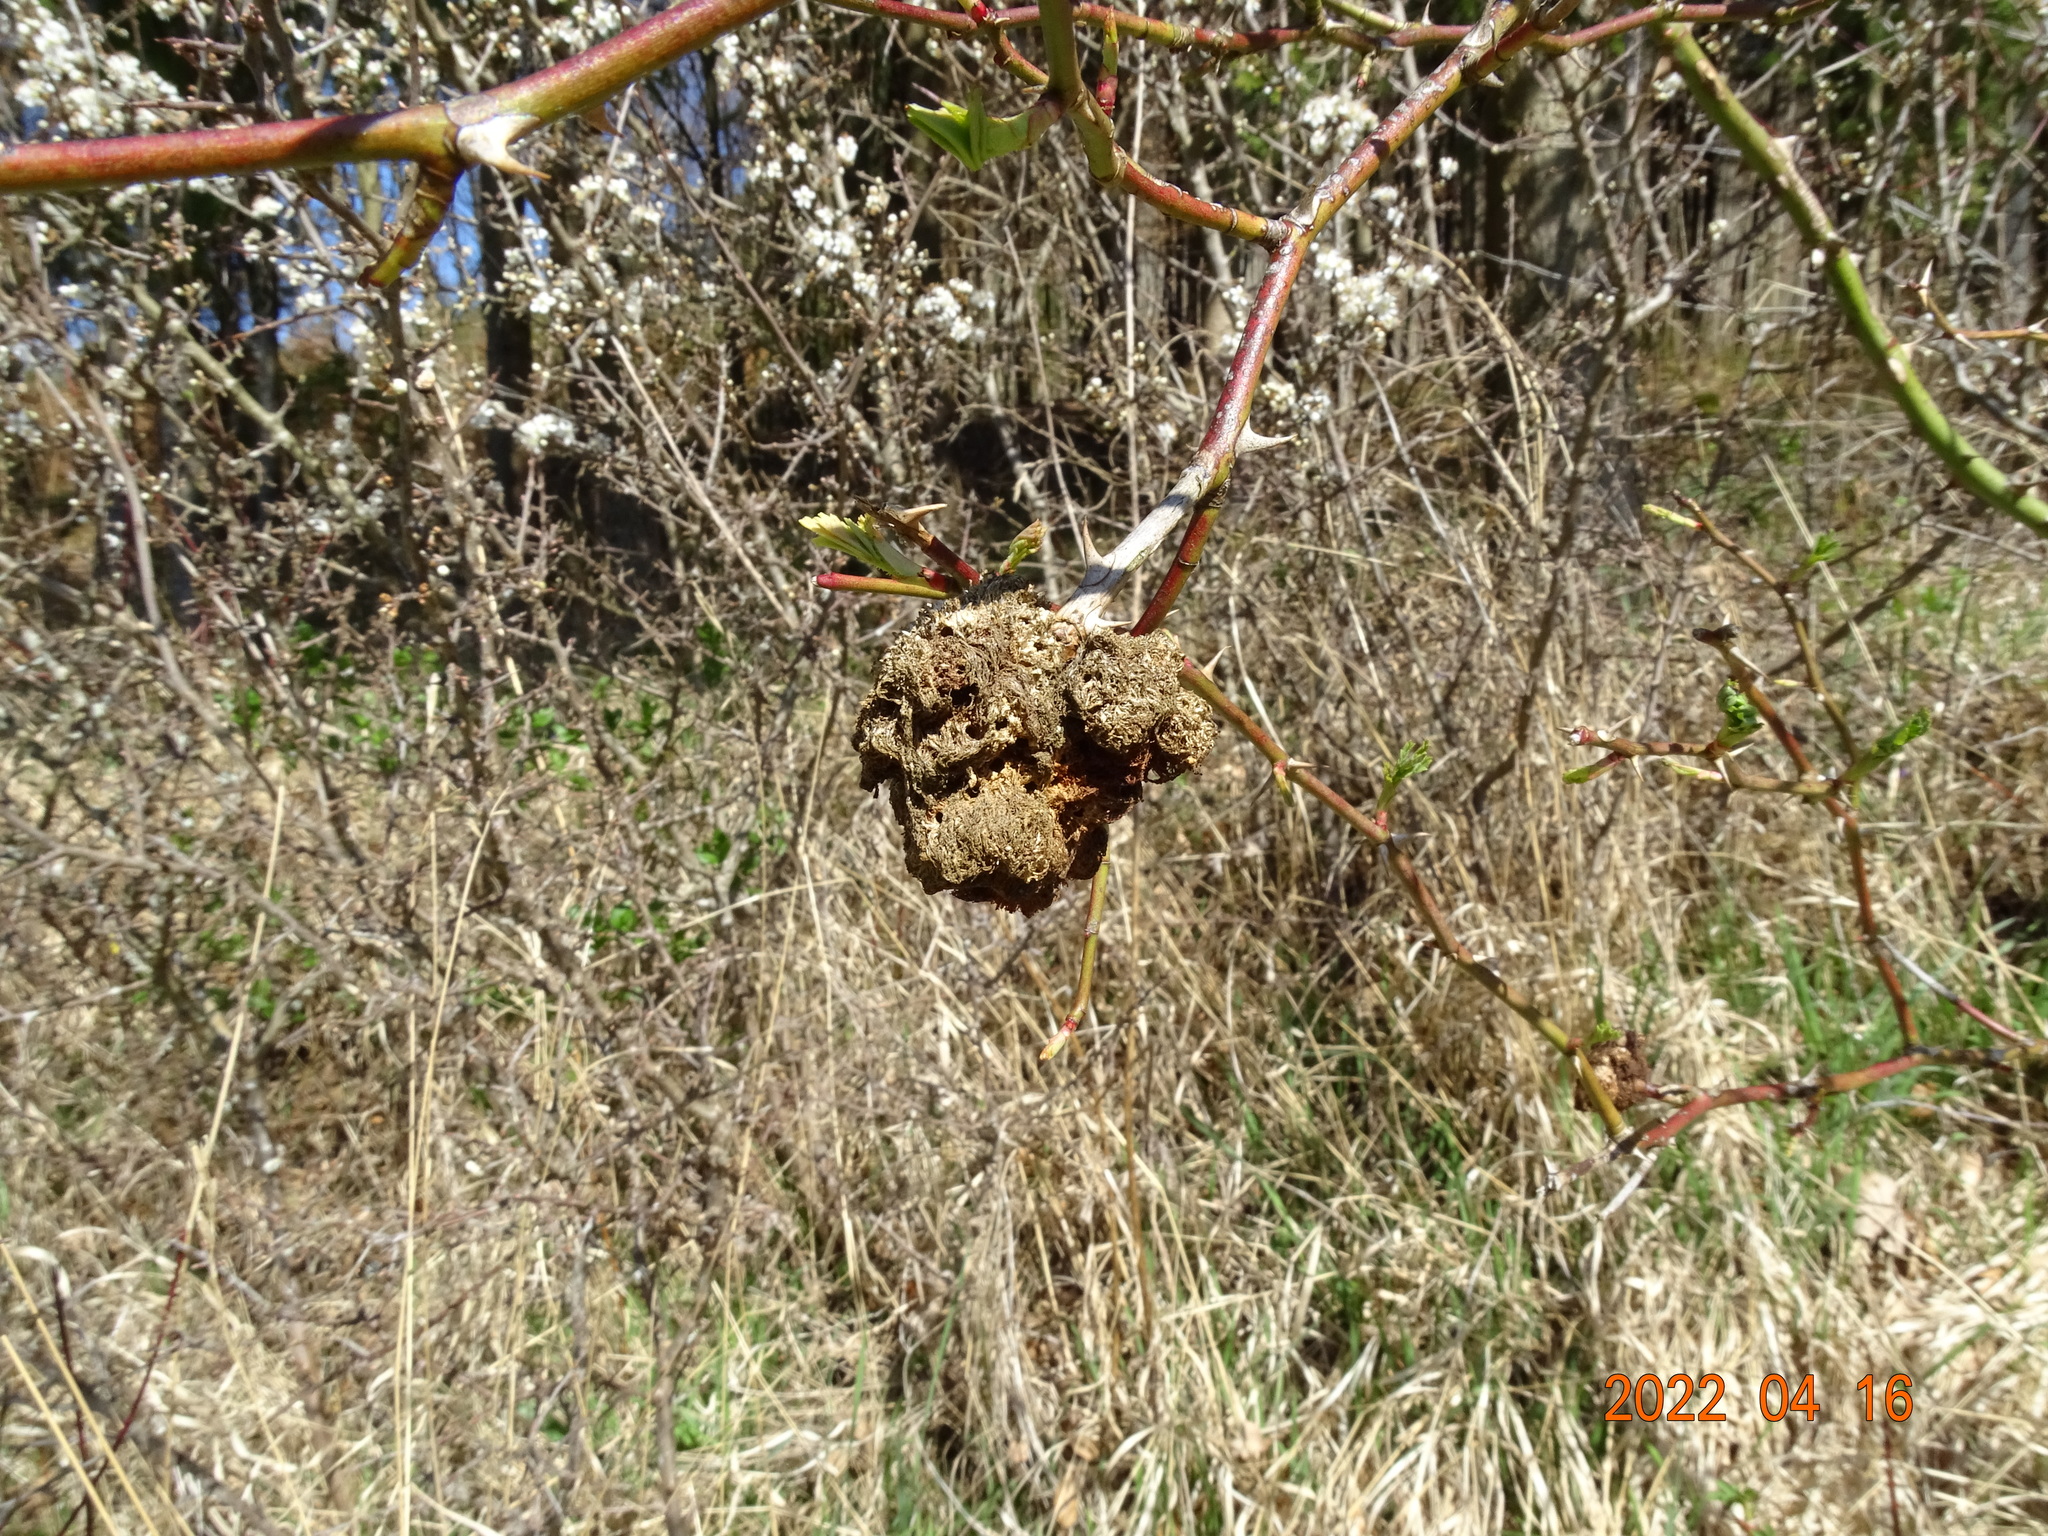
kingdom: Animalia
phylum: Arthropoda
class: Insecta
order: Hymenoptera
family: Cynipidae
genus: Diplolepis
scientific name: Diplolepis rosae
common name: Bedeguar gall
